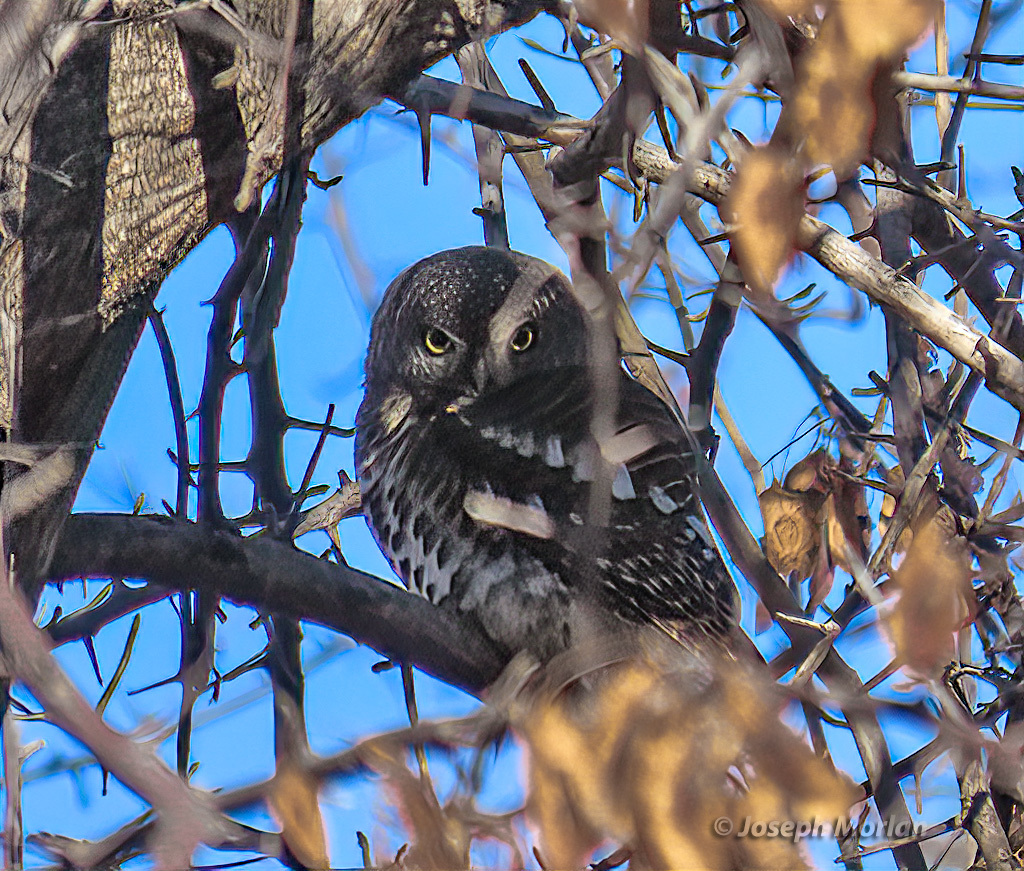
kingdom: Animalia
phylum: Chordata
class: Aves
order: Strigiformes
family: Strigidae
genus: Glaucidium
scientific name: Glaucidium capense
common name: African barred owlet
